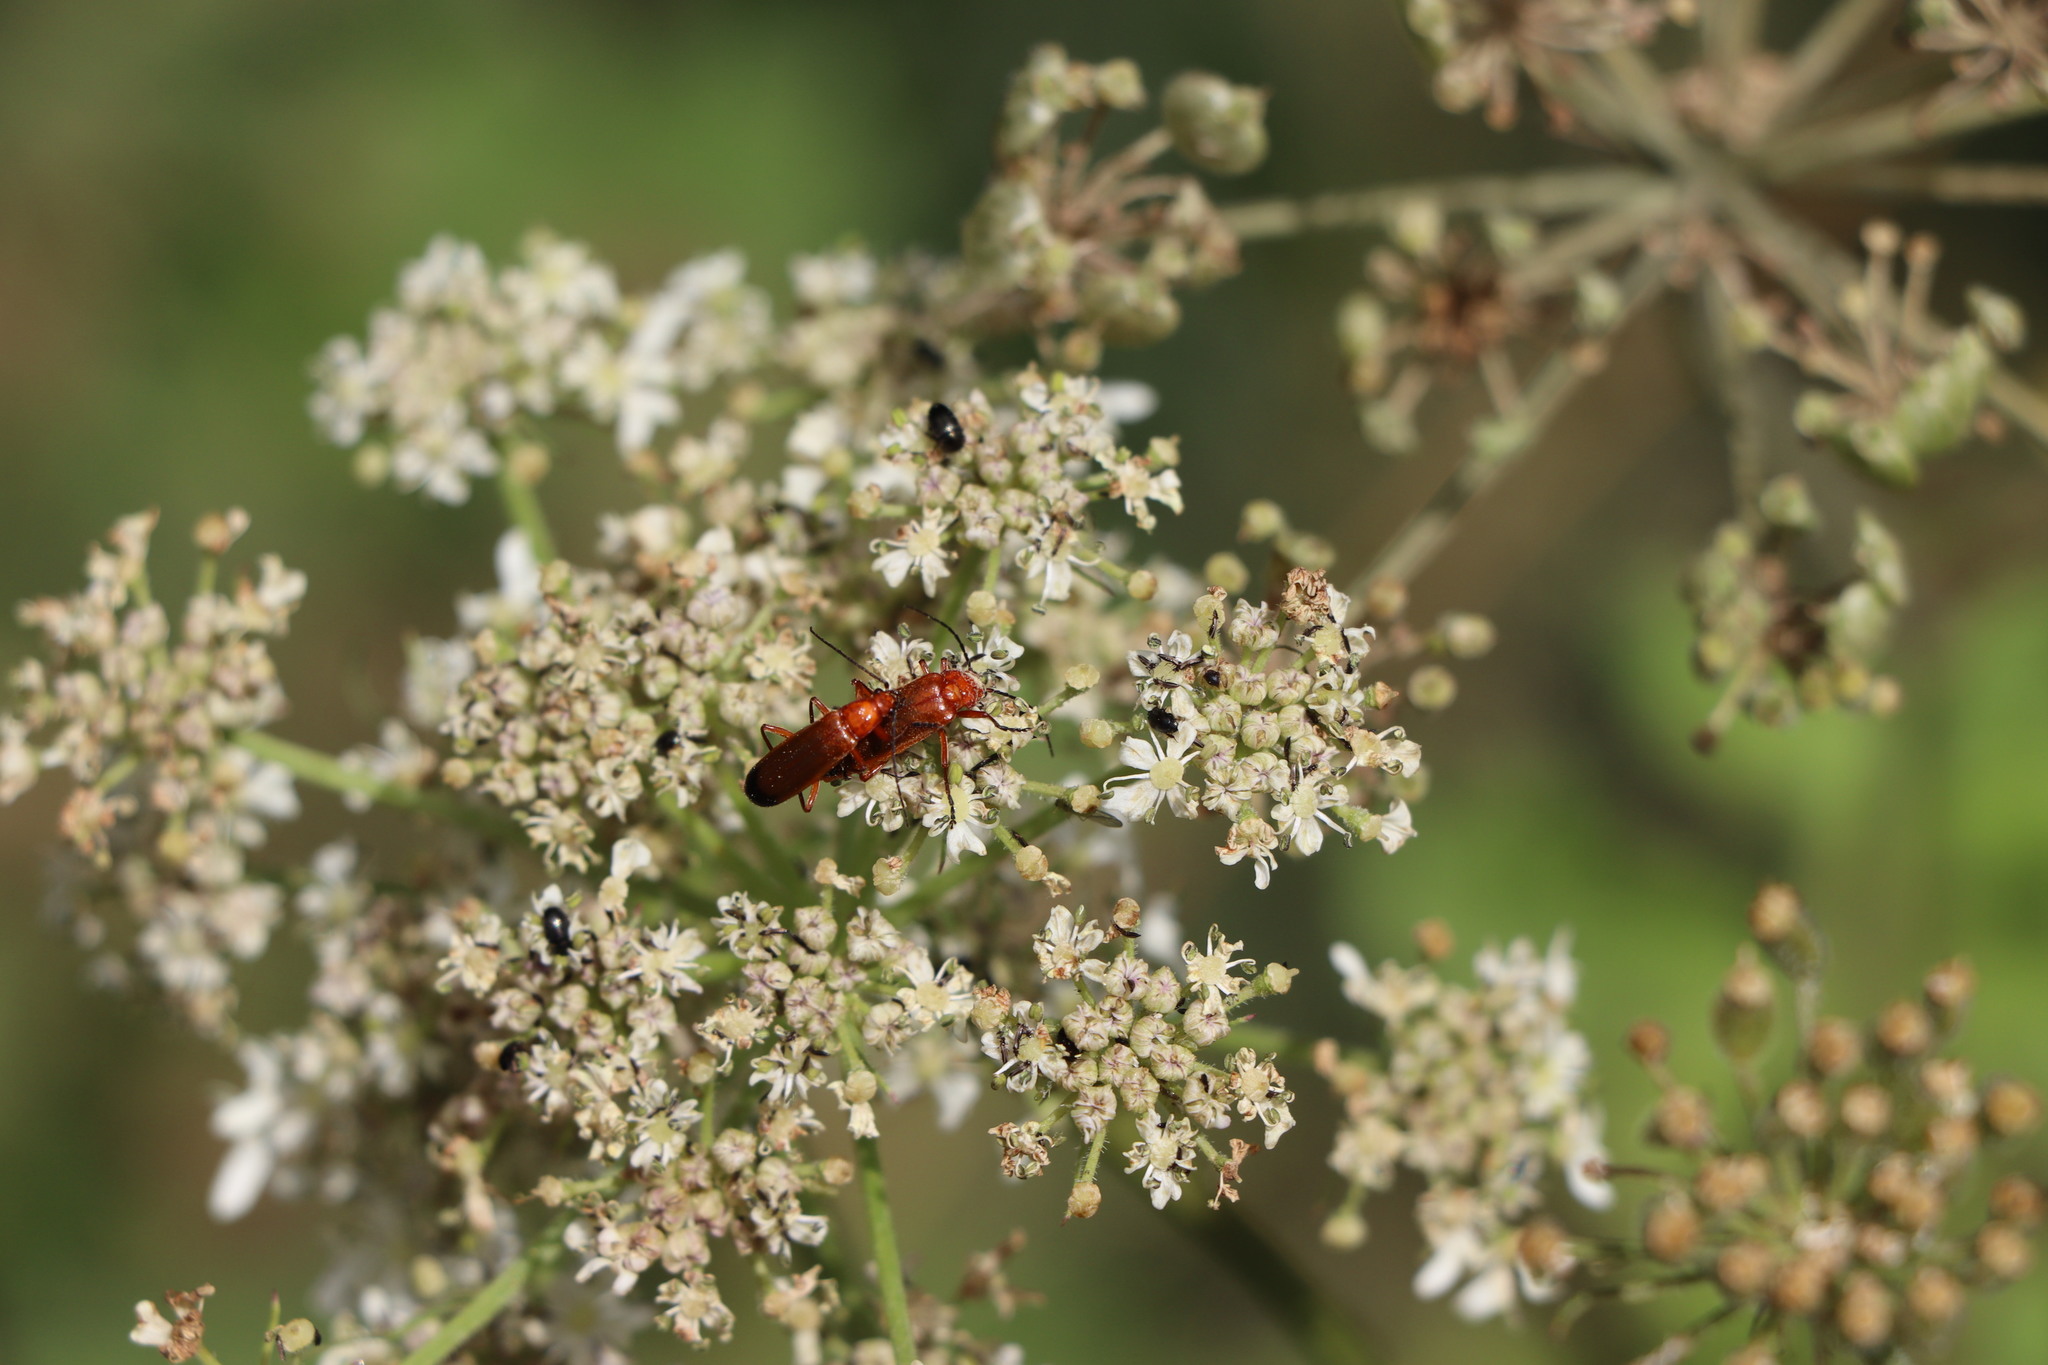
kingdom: Animalia
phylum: Arthropoda
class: Insecta
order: Coleoptera
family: Cantharidae
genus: Rhagonycha
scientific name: Rhagonycha fulva
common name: Common red soldier beetle
